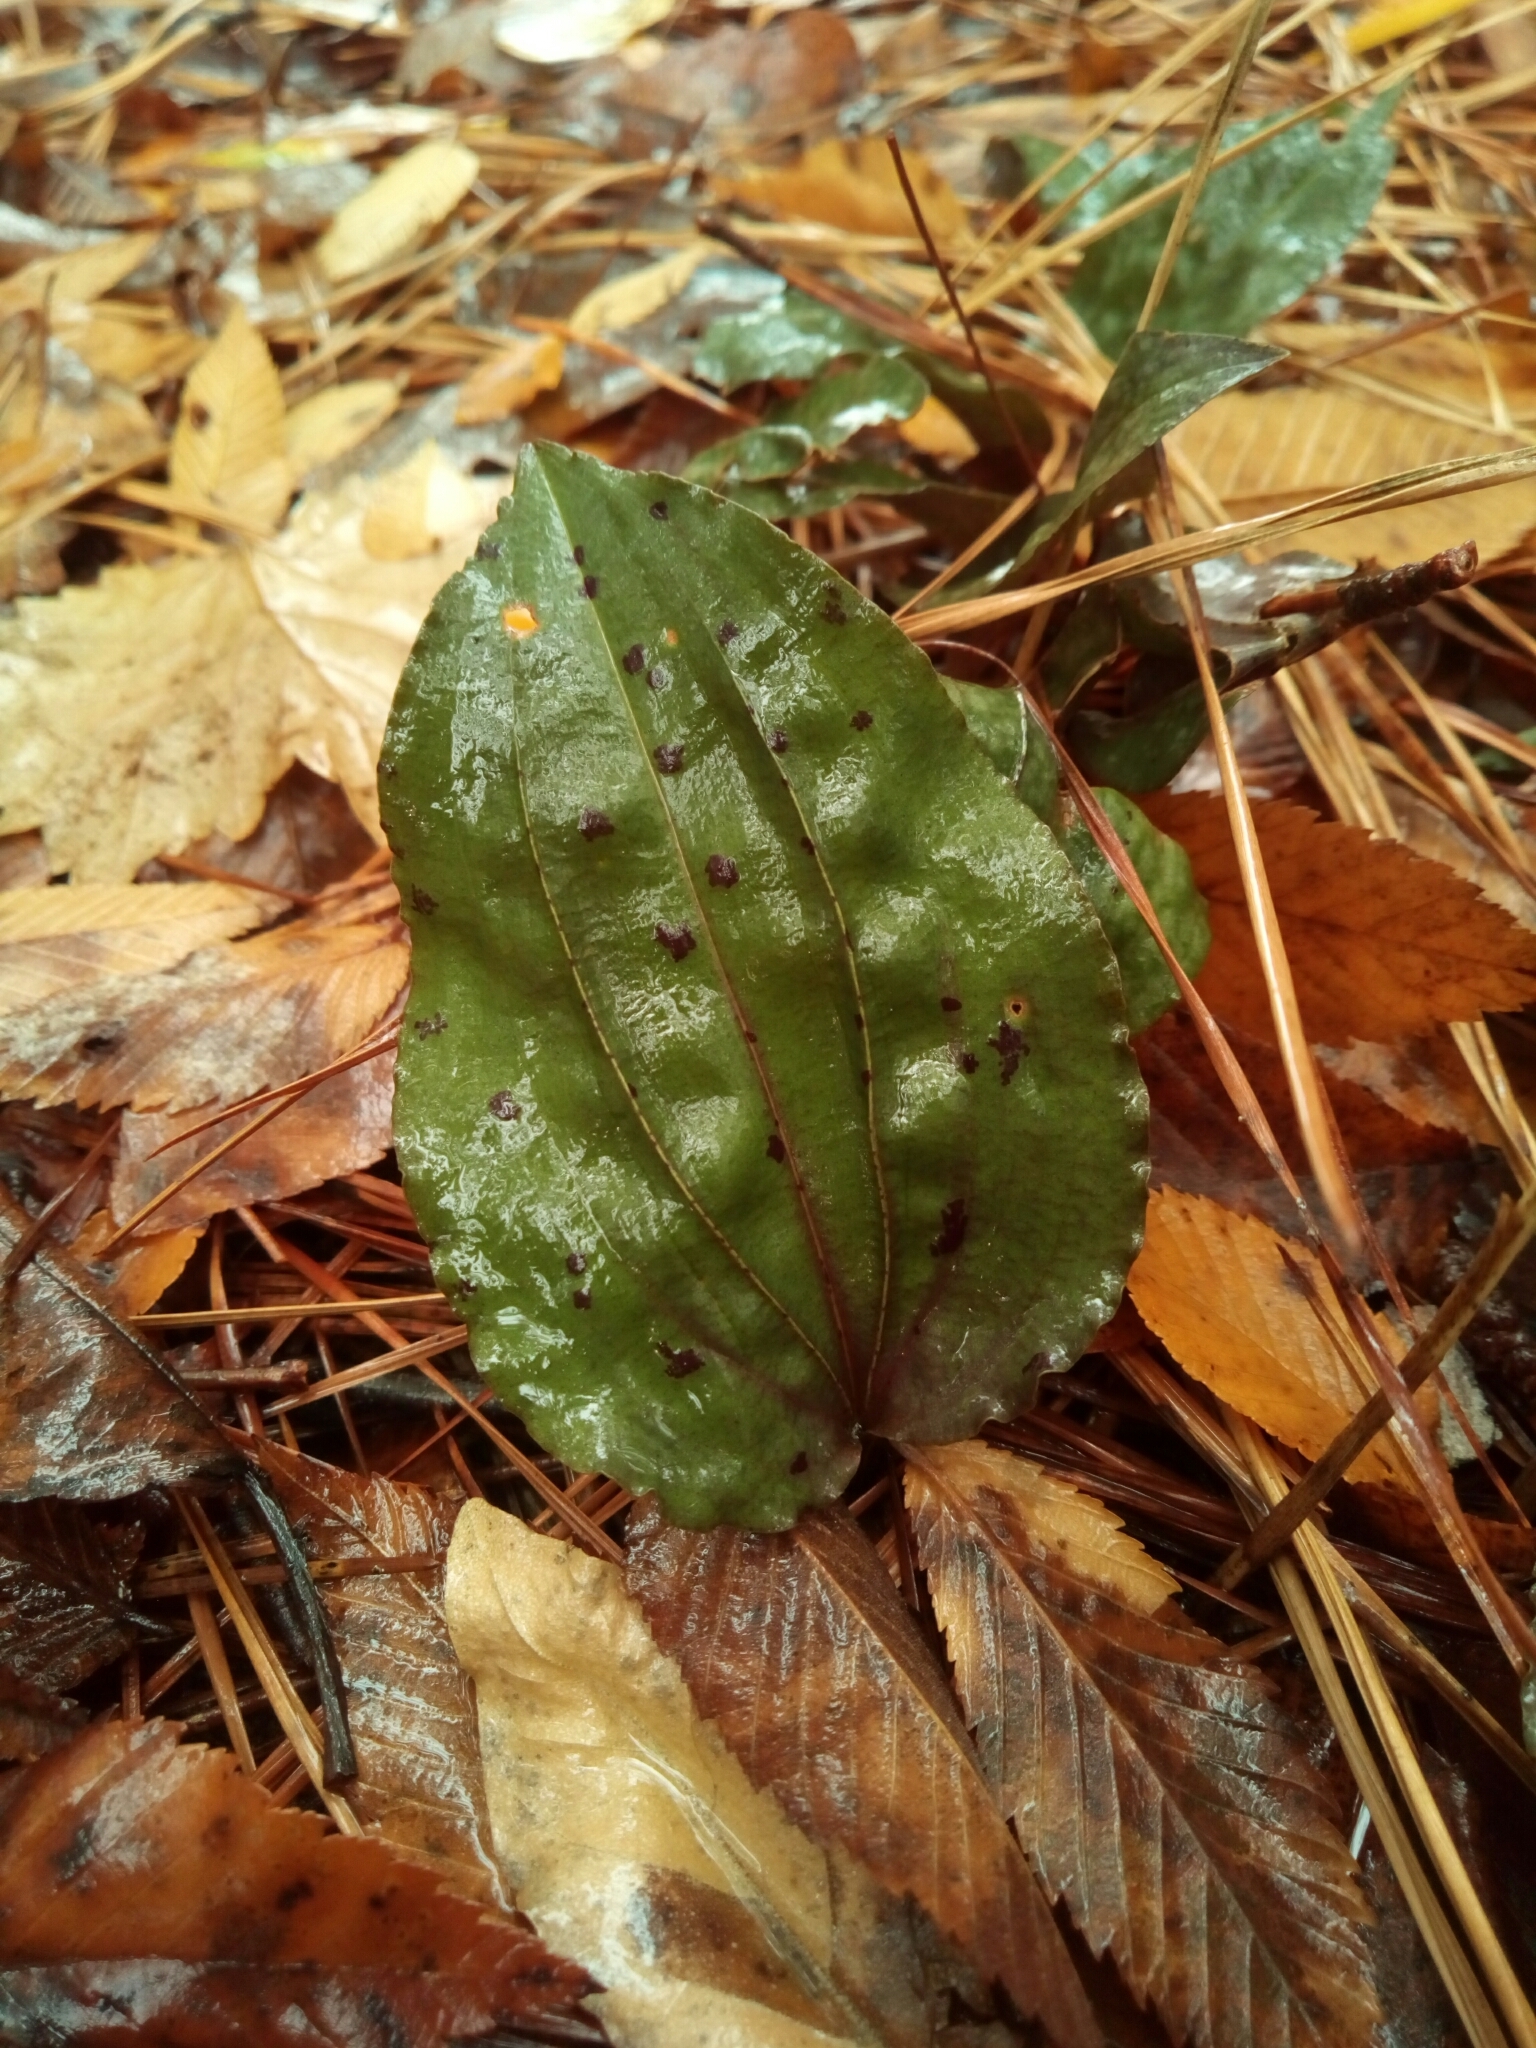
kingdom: Plantae
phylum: Tracheophyta
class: Liliopsida
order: Asparagales
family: Orchidaceae
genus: Tipularia
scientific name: Tipularia discolor
